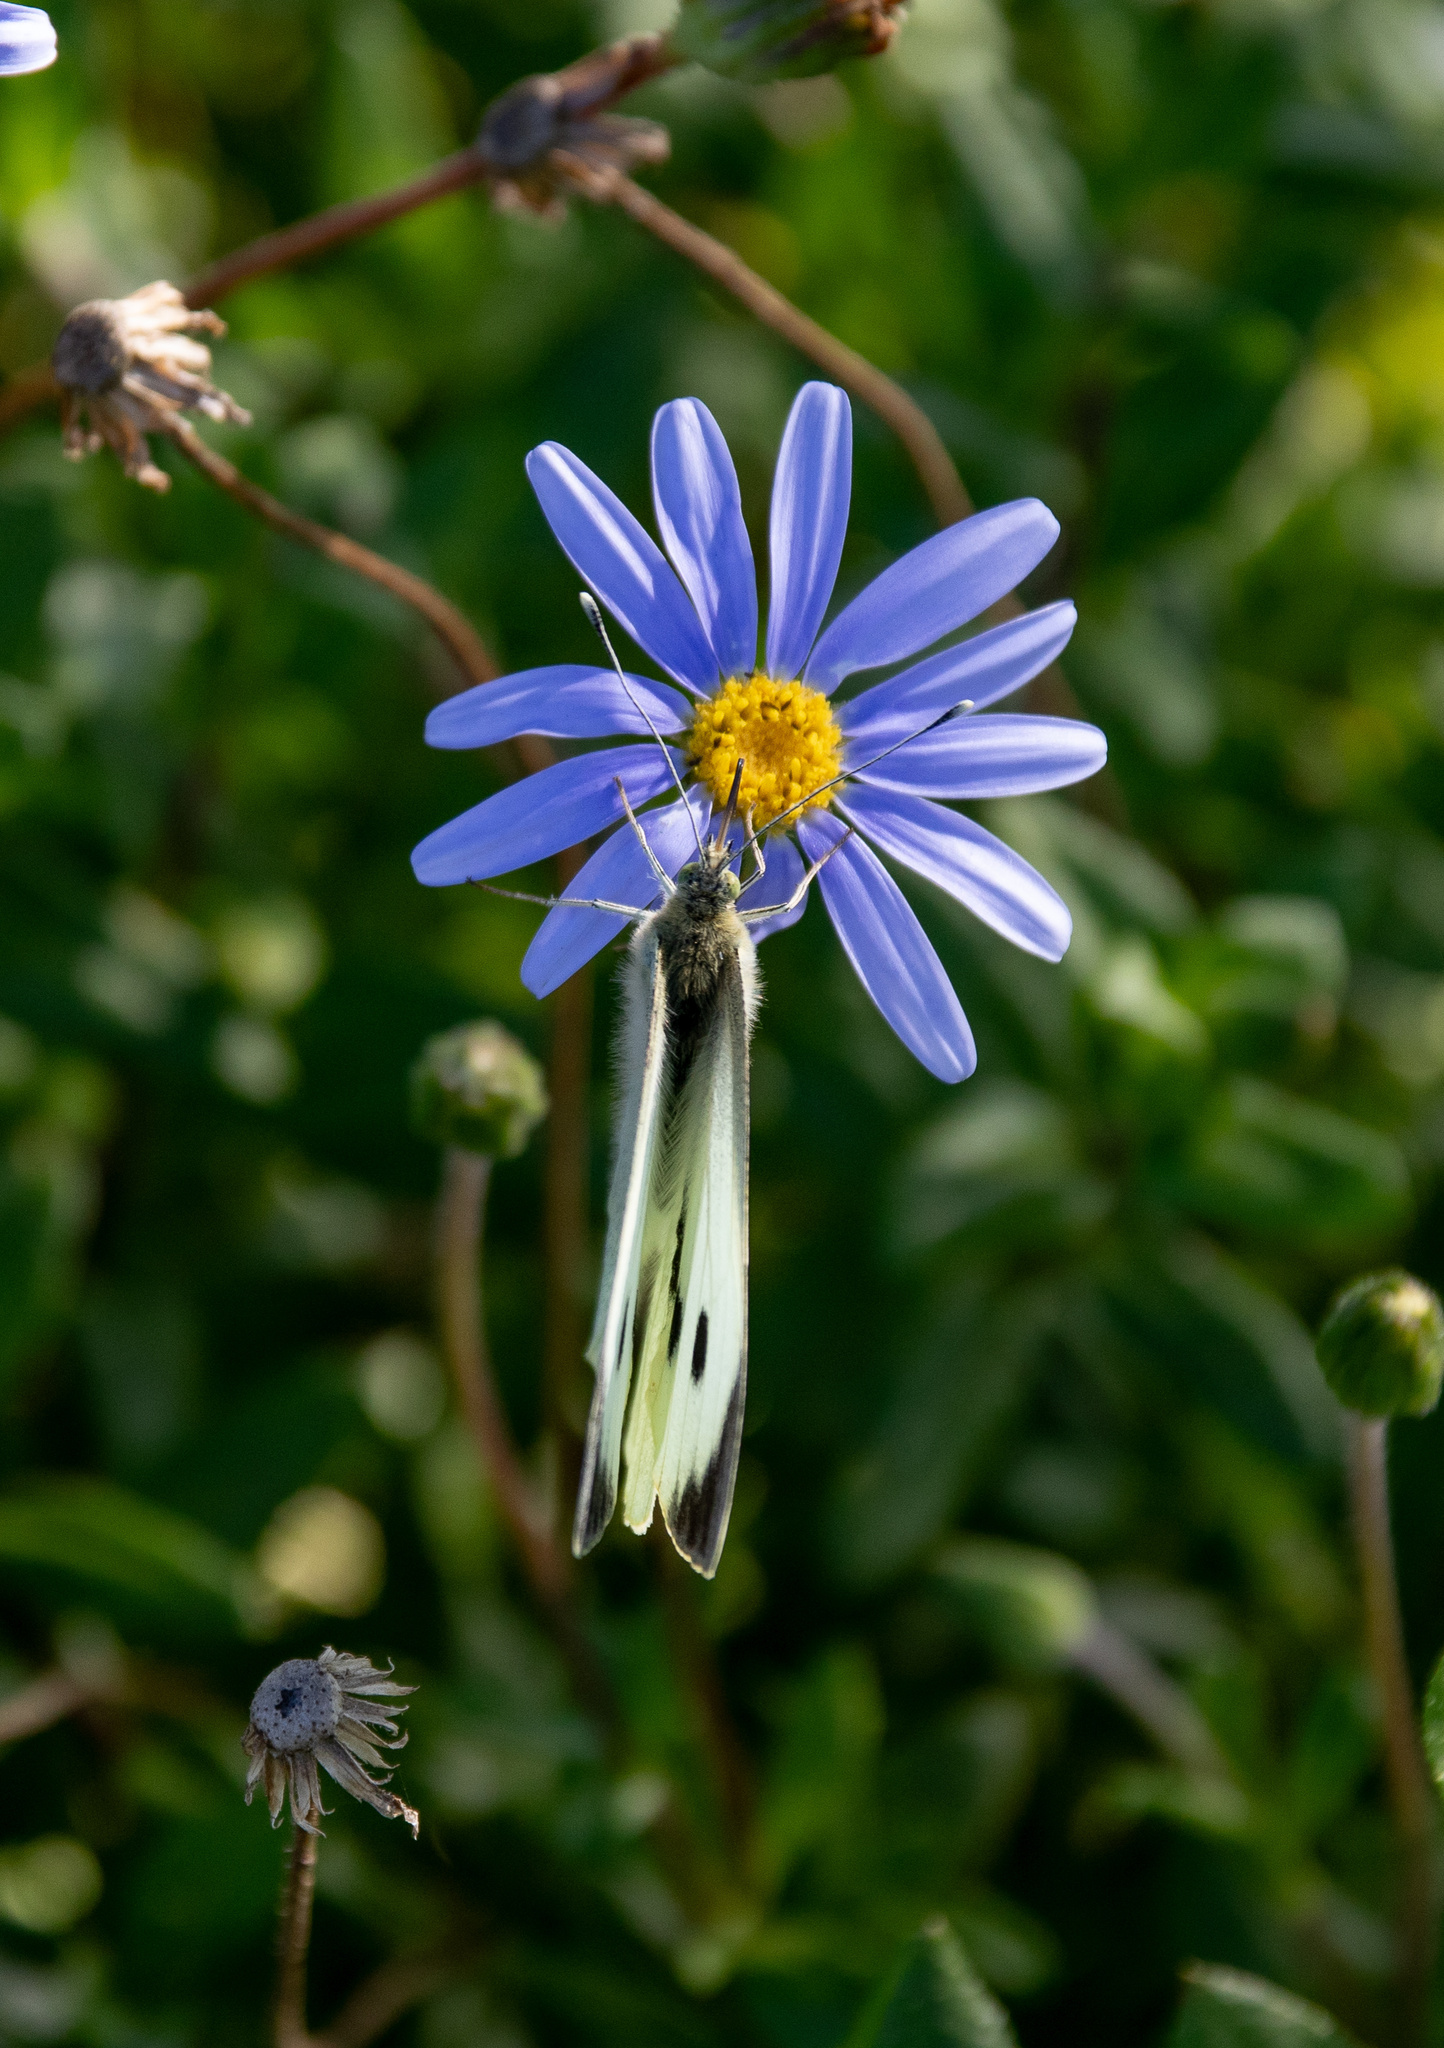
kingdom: Animalia
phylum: Arthropoda
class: Insecta
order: Lepidoptera
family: Pieridae
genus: Pieris
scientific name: Pieris brassicae
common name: Large white
